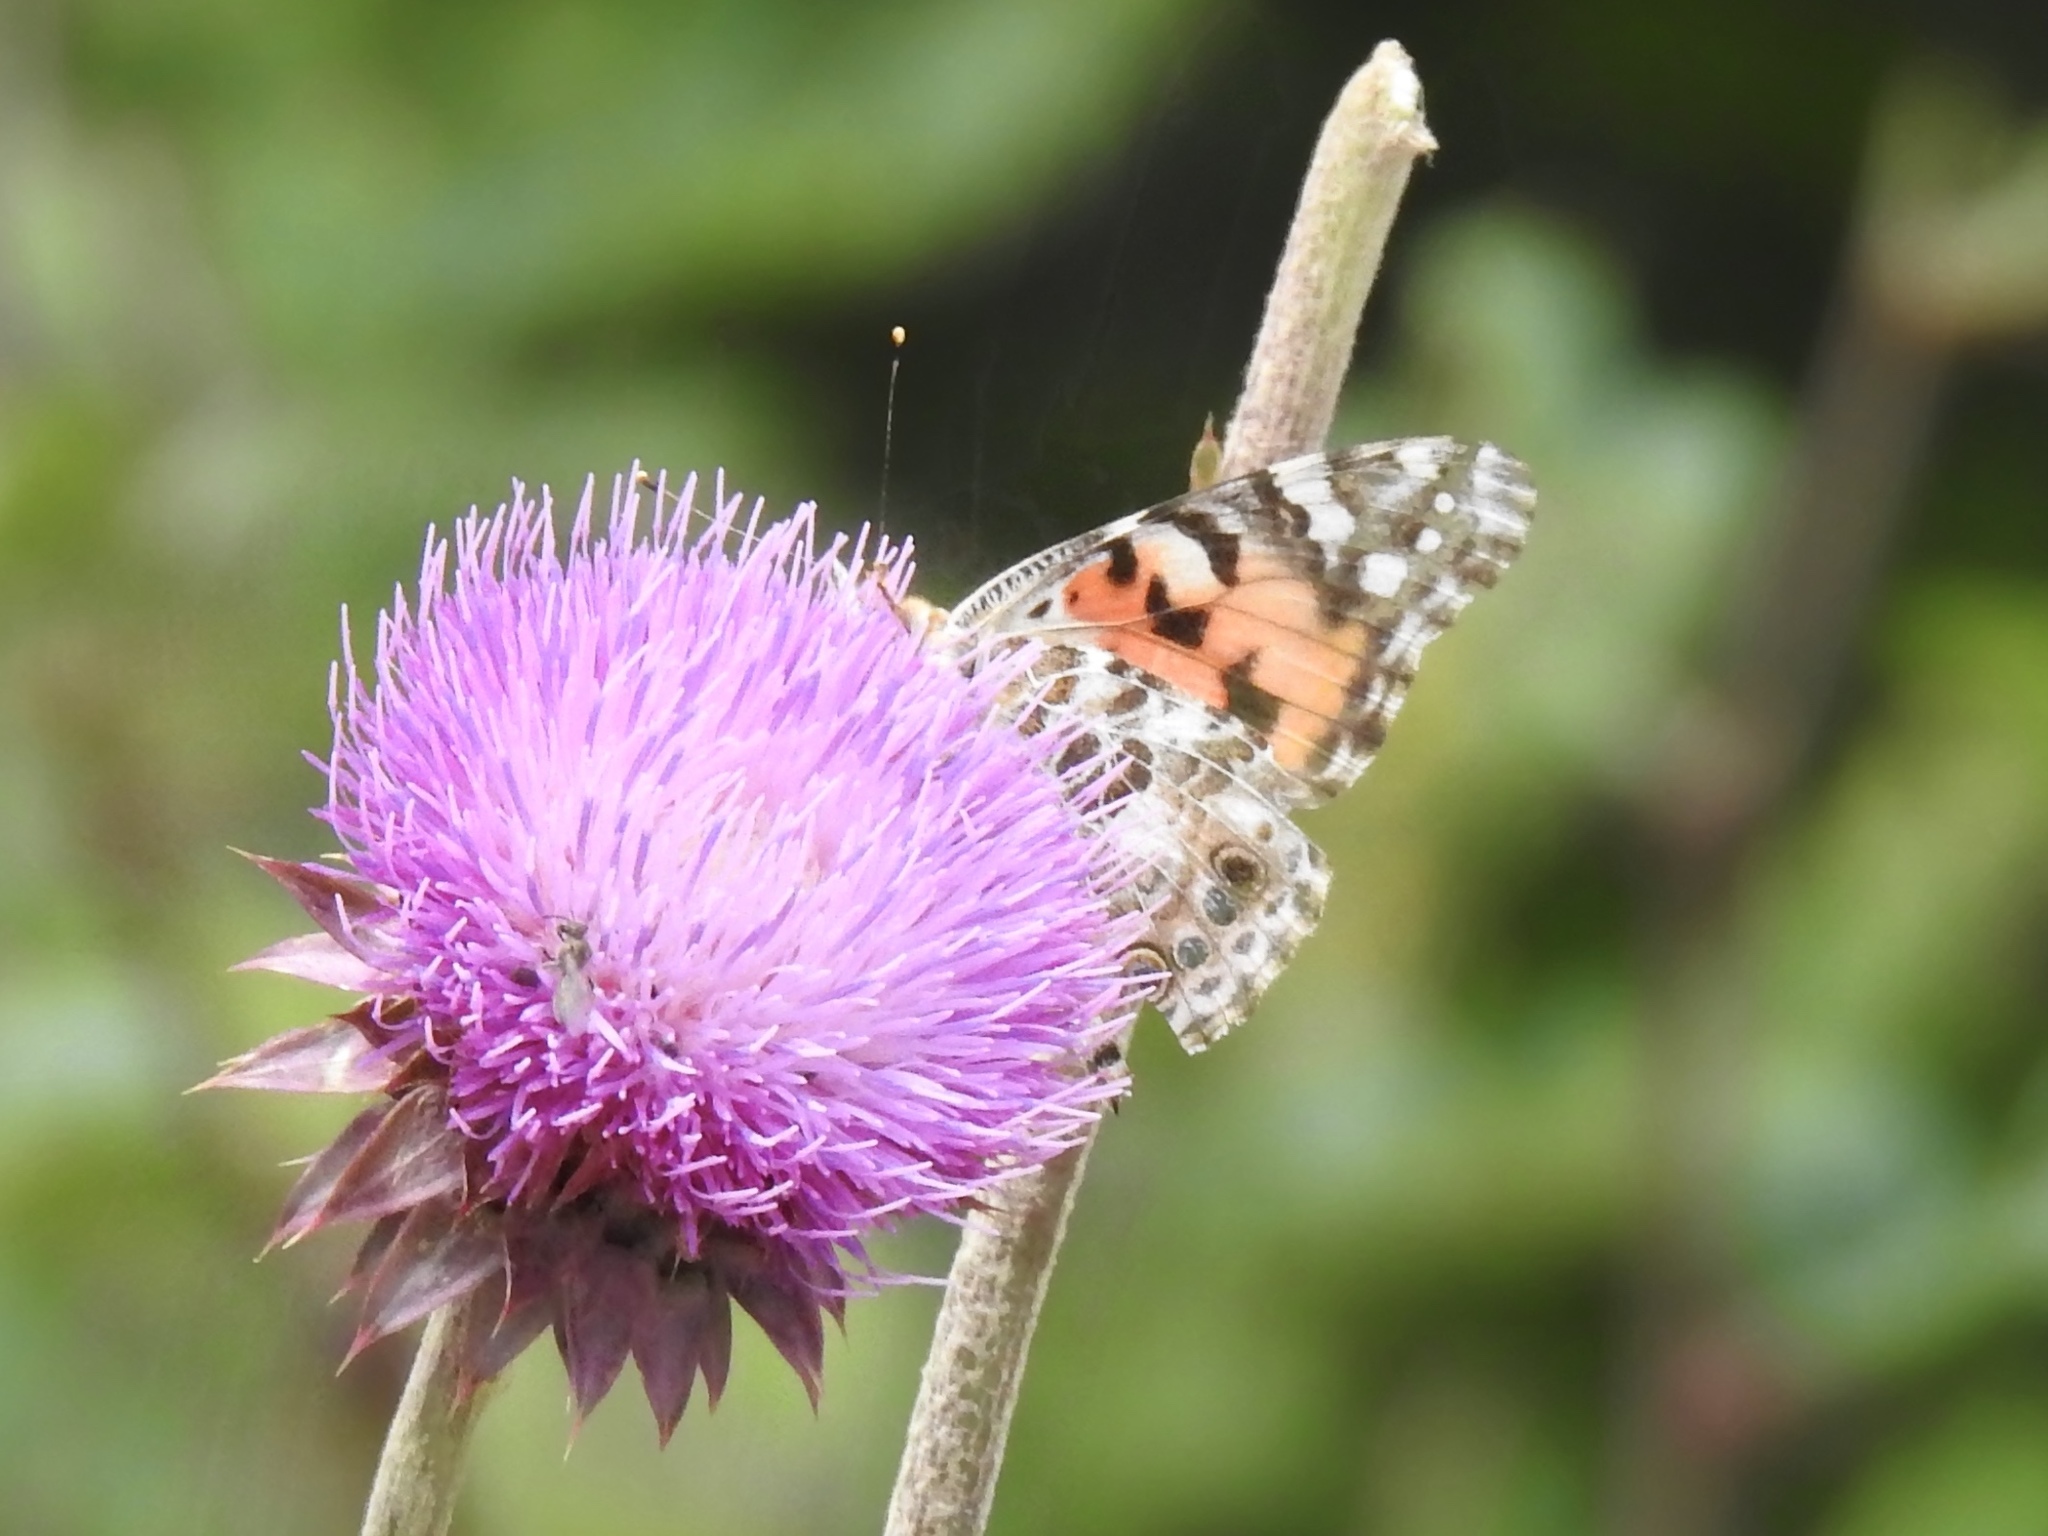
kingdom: Animalia
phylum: Arthropoda
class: Insecta
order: Lepidoptera
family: Nymphalidae
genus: Vanessa
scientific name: Vanessa cardui
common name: Painted lady
